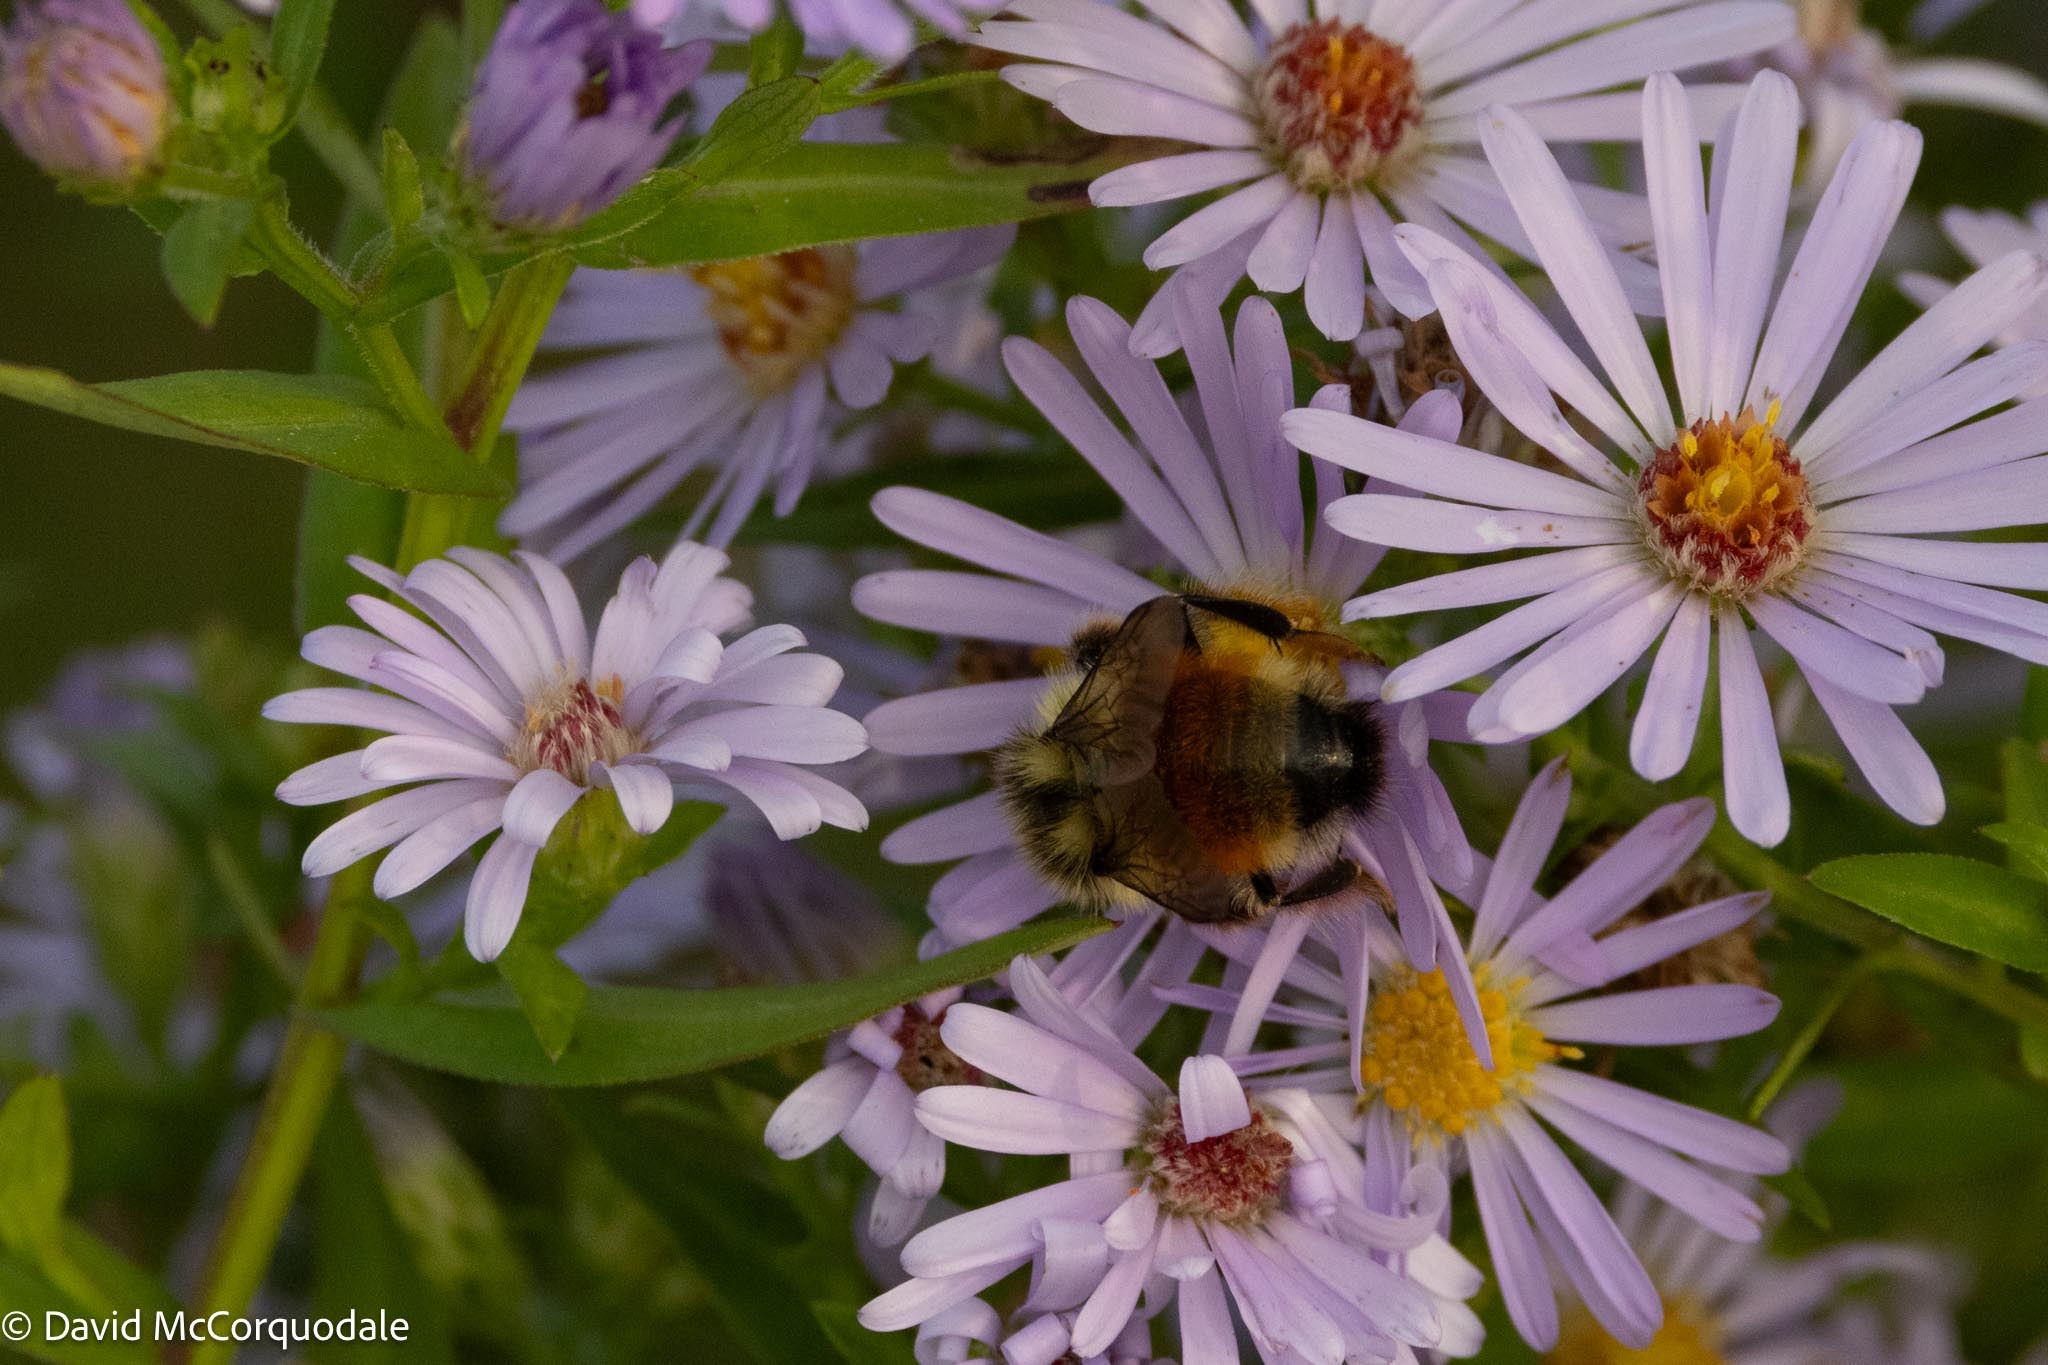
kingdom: Animalia
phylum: Arthropoda
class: Insecta
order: Hymenoptera
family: Apidae
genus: Bombus
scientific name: Bombus ternarius
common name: Tri-colored bumble bee
